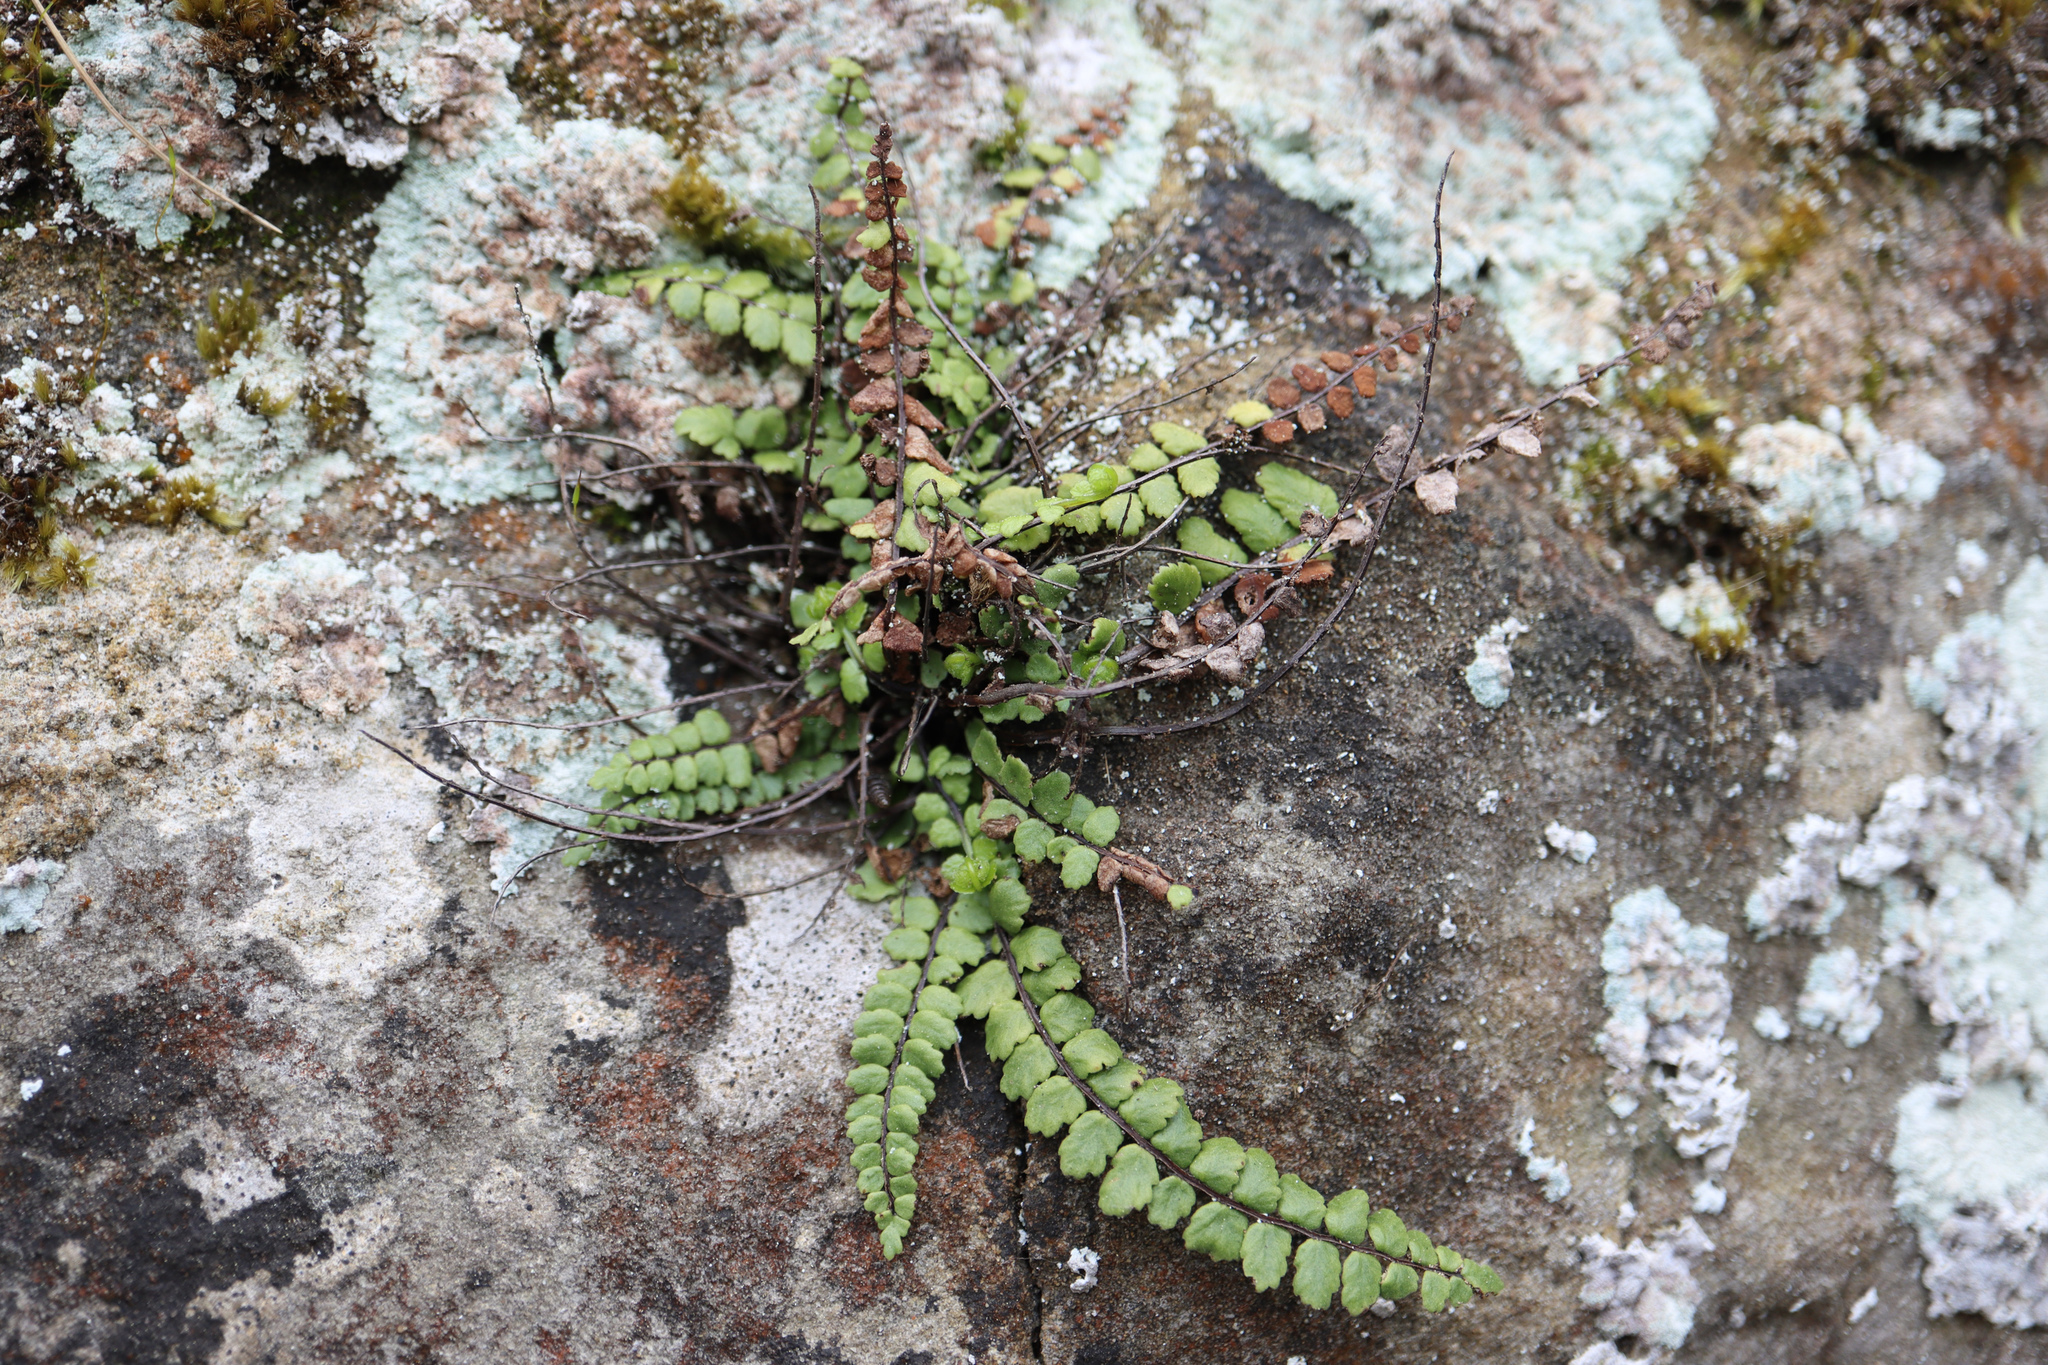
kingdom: Plantae
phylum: Tracheophyta
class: Polypodiopsida
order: Polypodiales
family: Aspleniaceae
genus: Asplenium
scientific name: Asplenium trichomanes
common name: Maidenhair spleenwort
